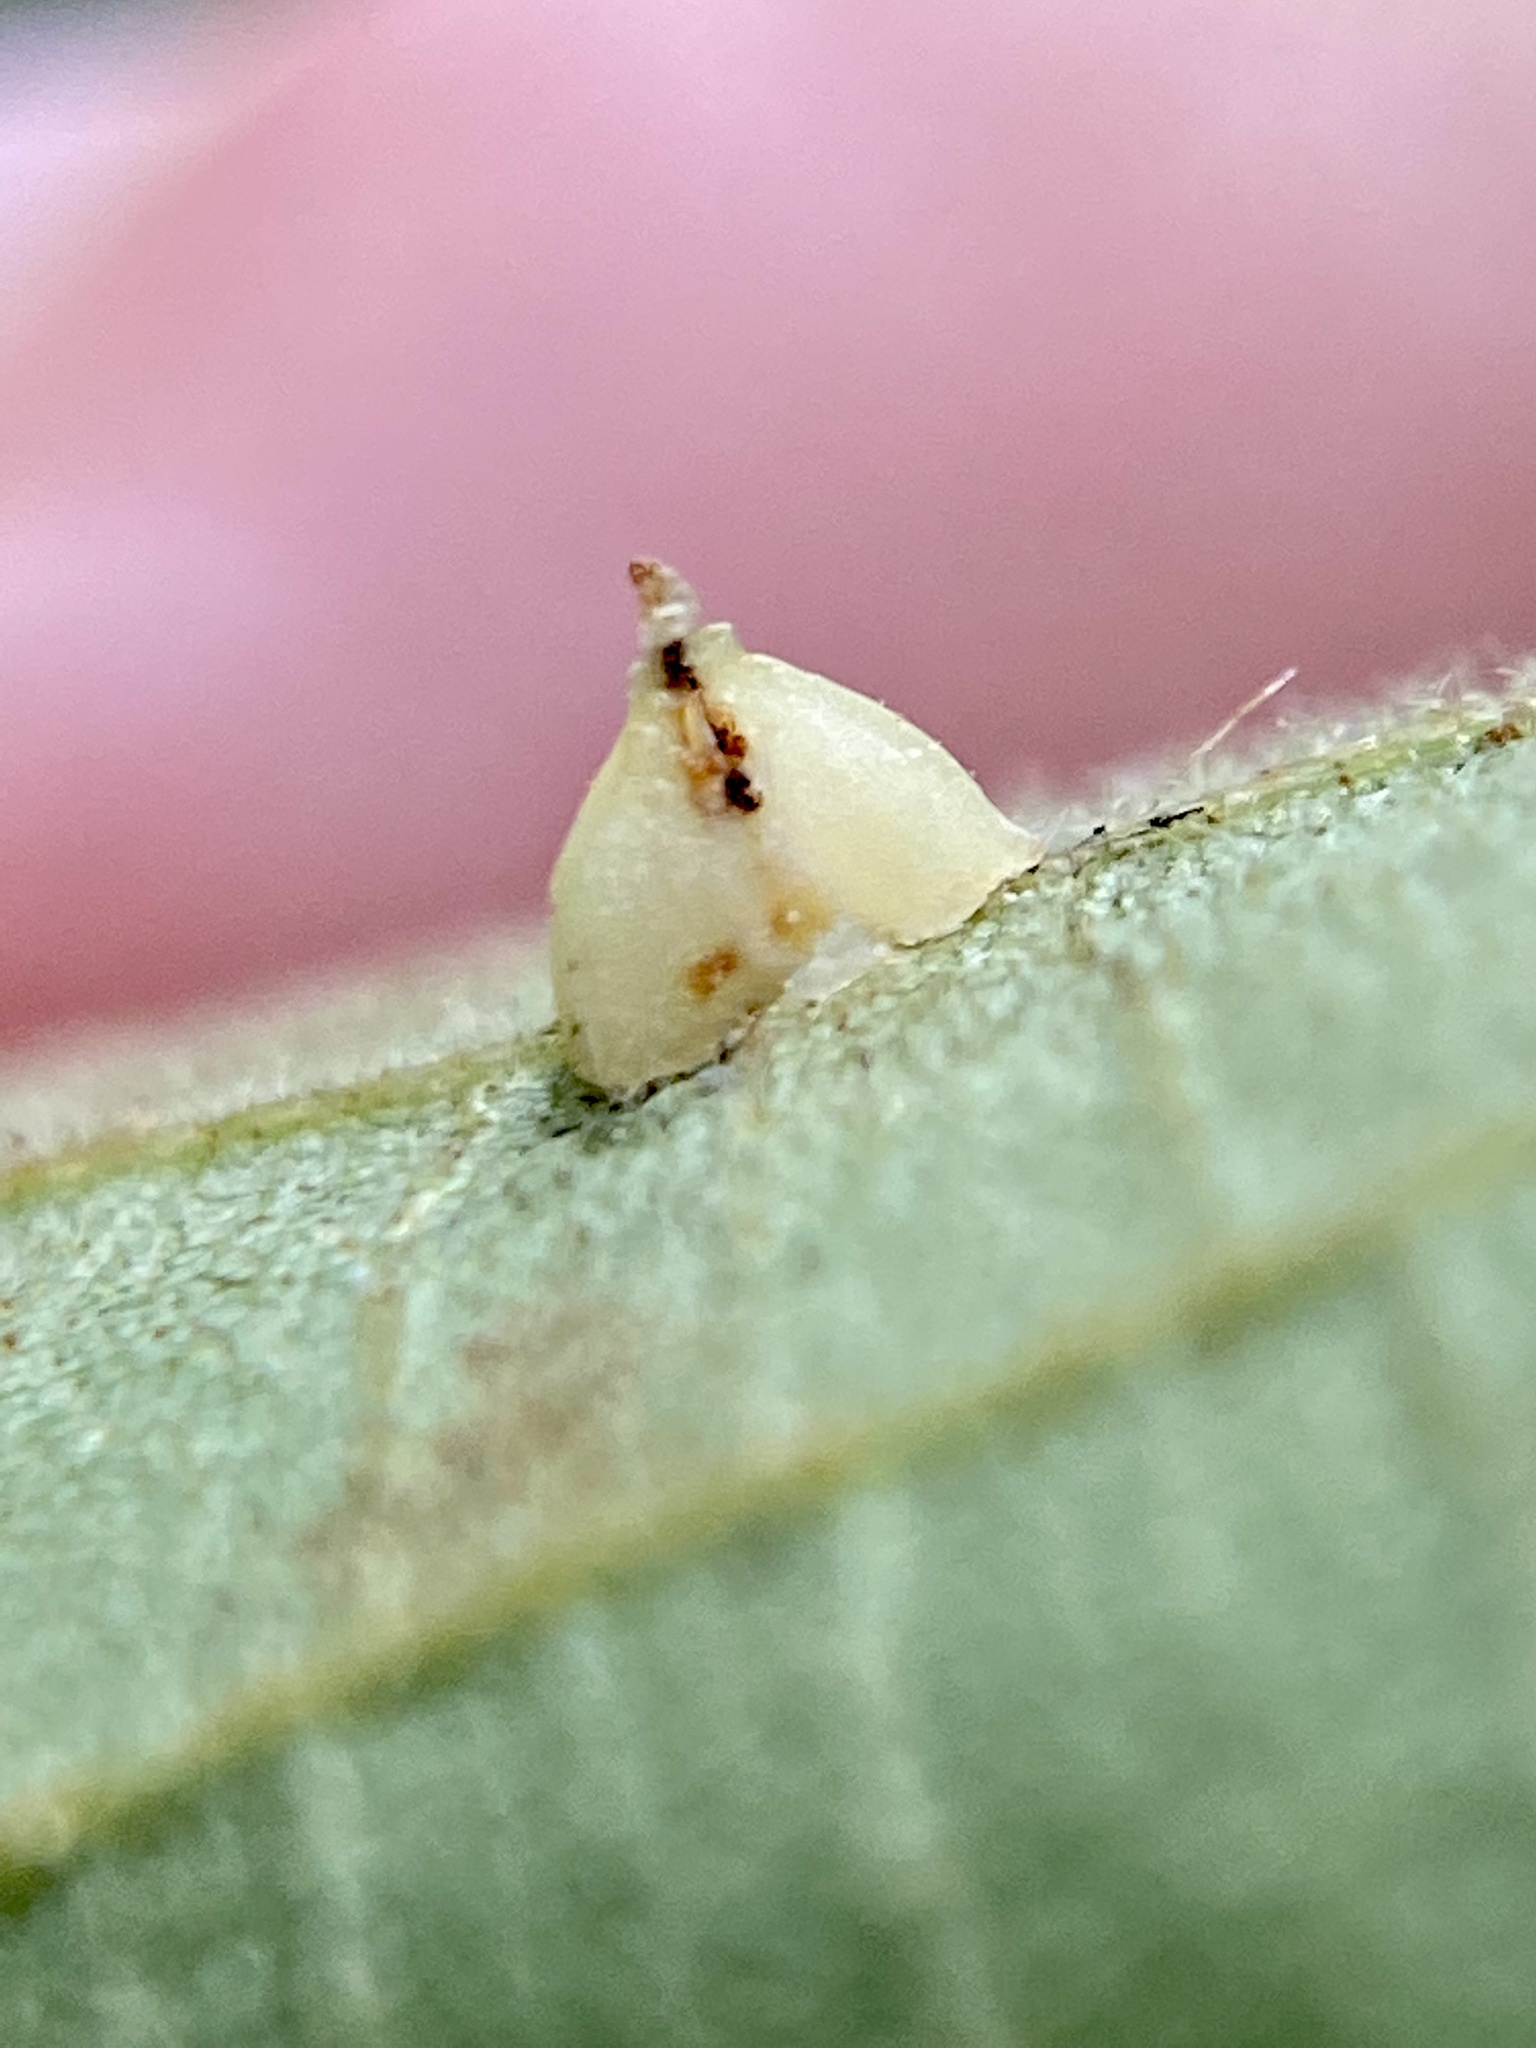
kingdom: Animalia
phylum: Arthropoda
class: Insecta
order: Diptera
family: Cecidomyiidae
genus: Caryomyia
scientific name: Caryomyia sanguinolenta
